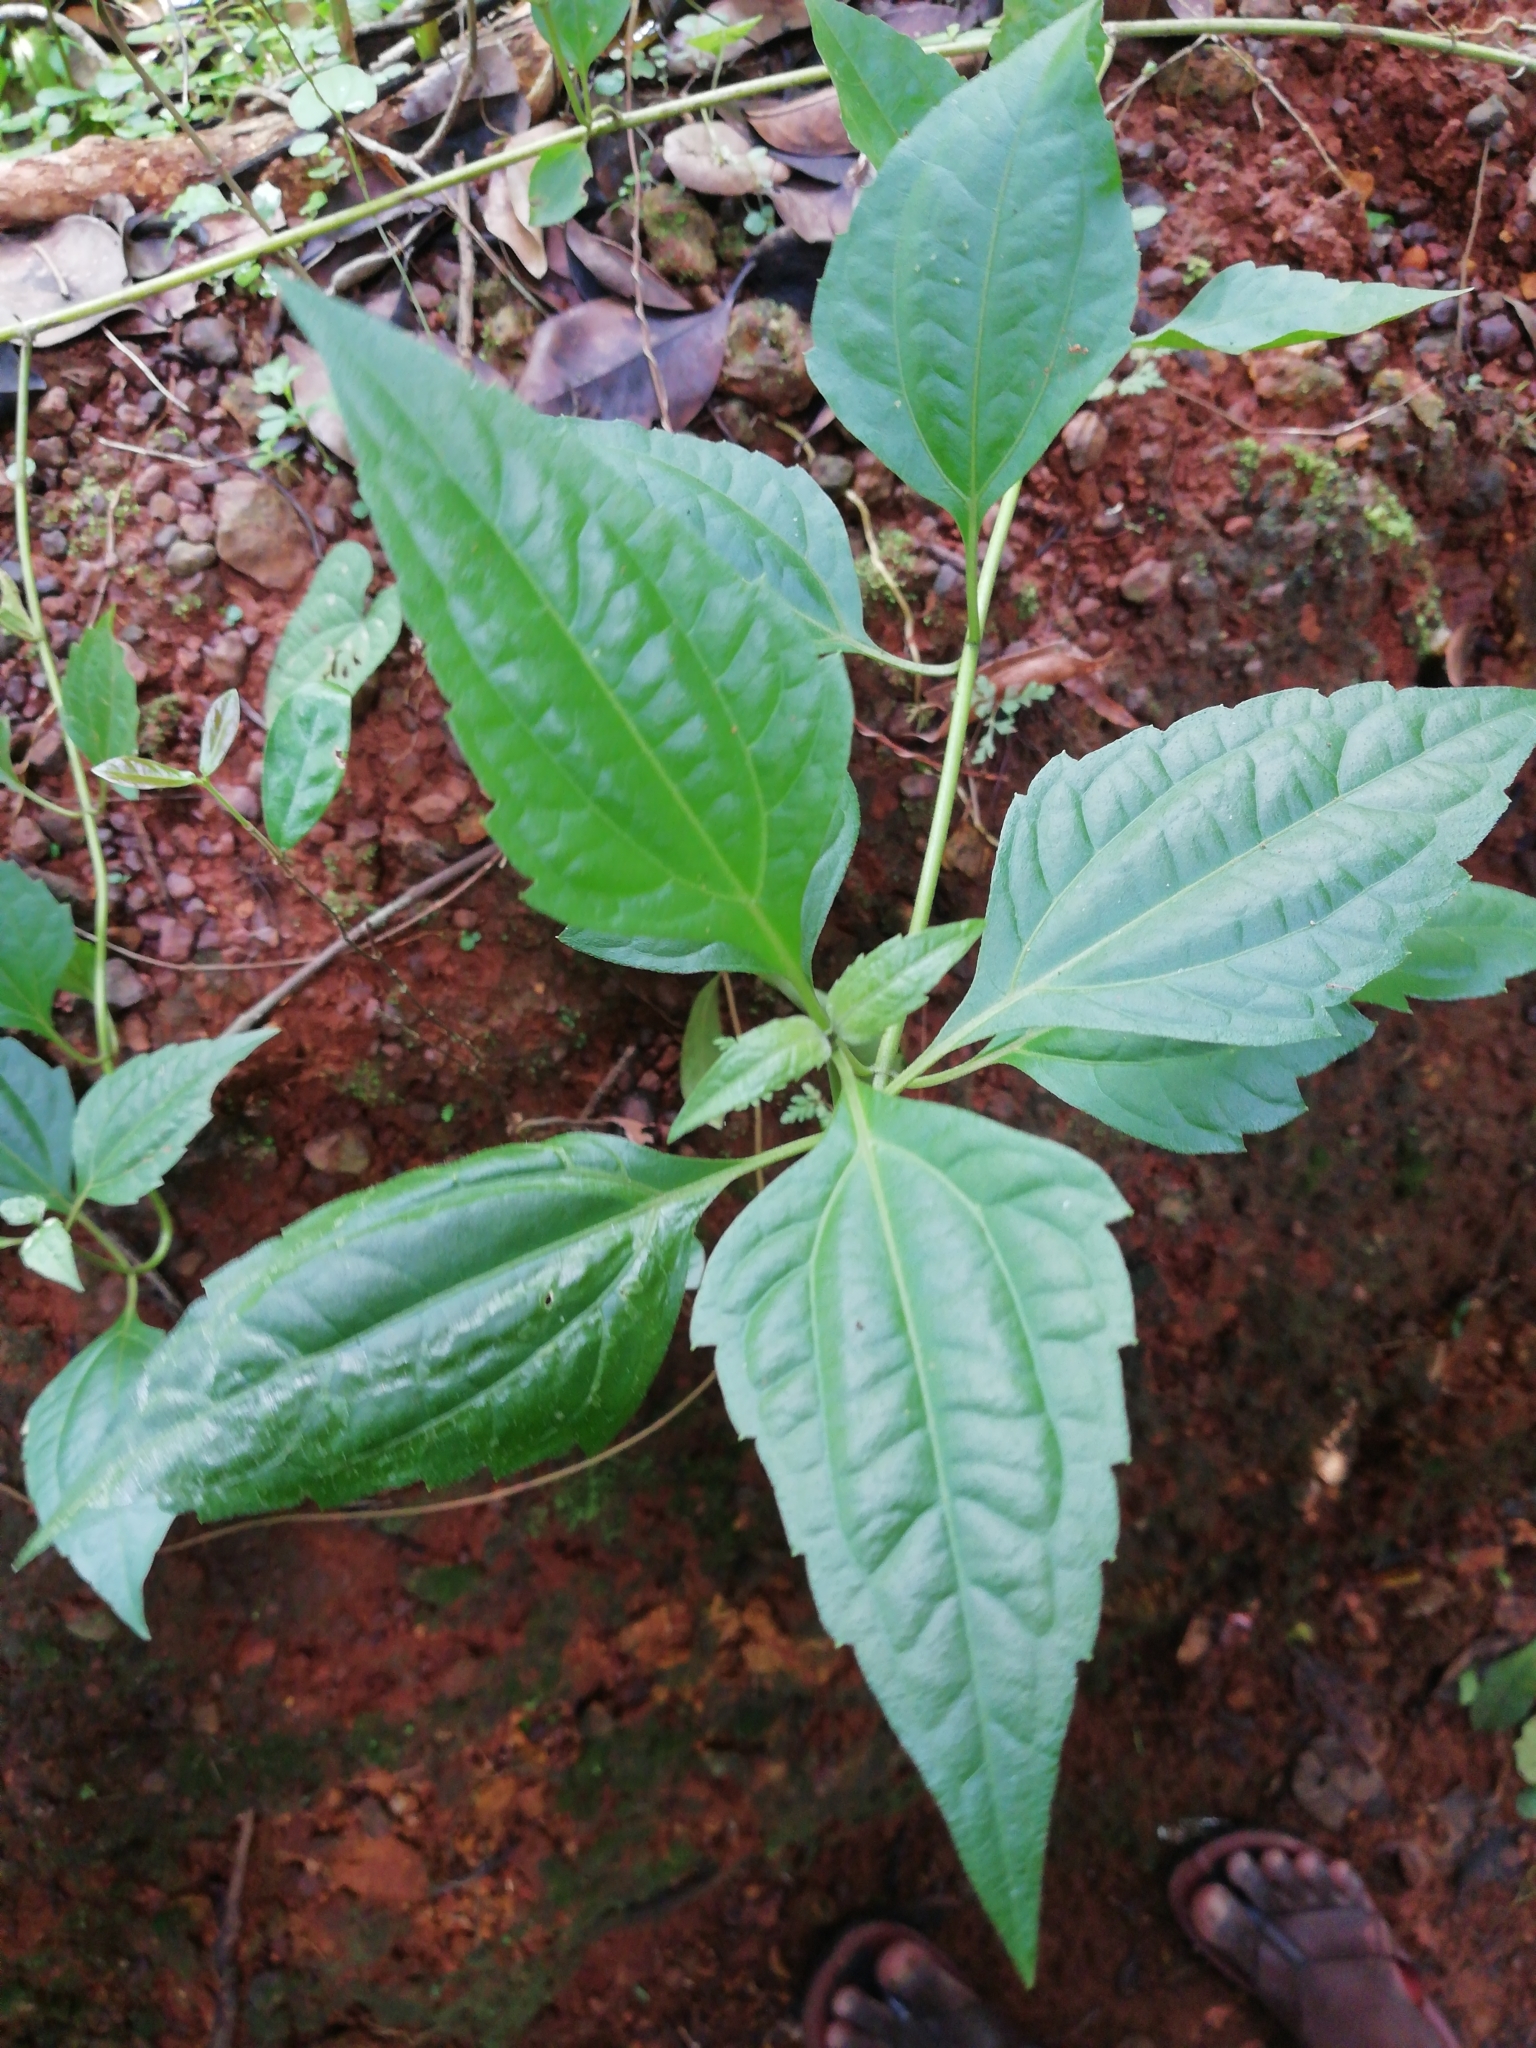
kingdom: Plantae
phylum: Tracheophyta
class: Magnoliopsida
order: Asterales
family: Asteraceae
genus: Chromolaena
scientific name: Chromolaena odorata
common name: Siamweed
